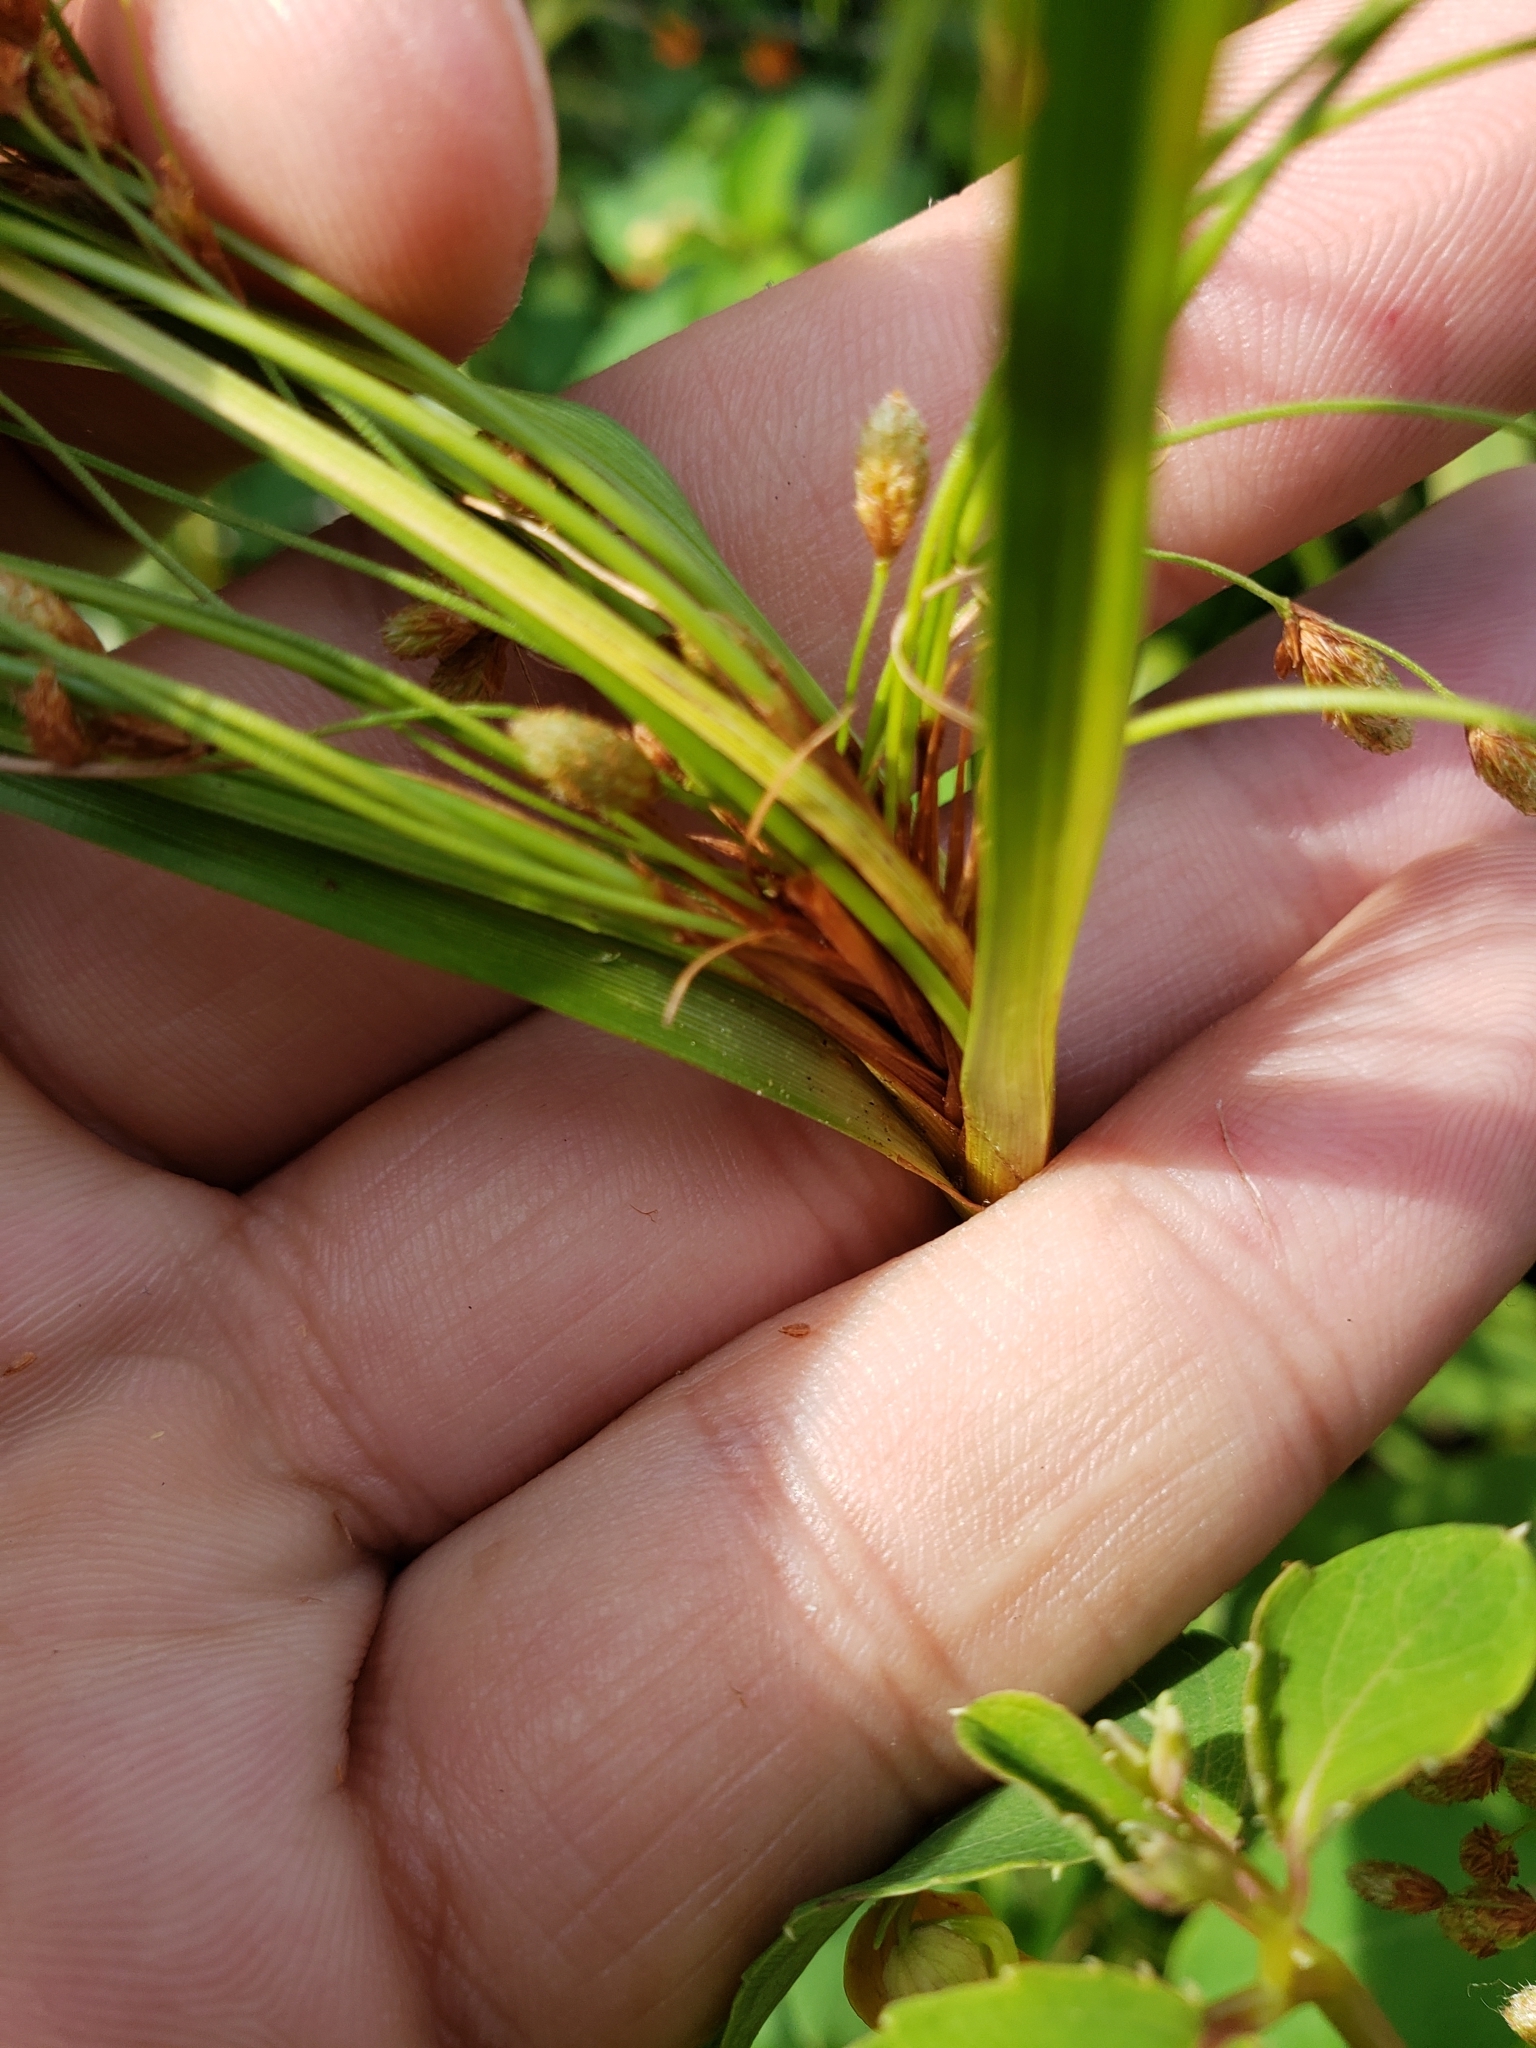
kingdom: Plantae
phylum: Tracheophyta
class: Liliopsida
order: Poales
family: Cyperaceae
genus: Scirpus
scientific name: Scirpus cyperinus
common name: Black-sheathed bulrush
